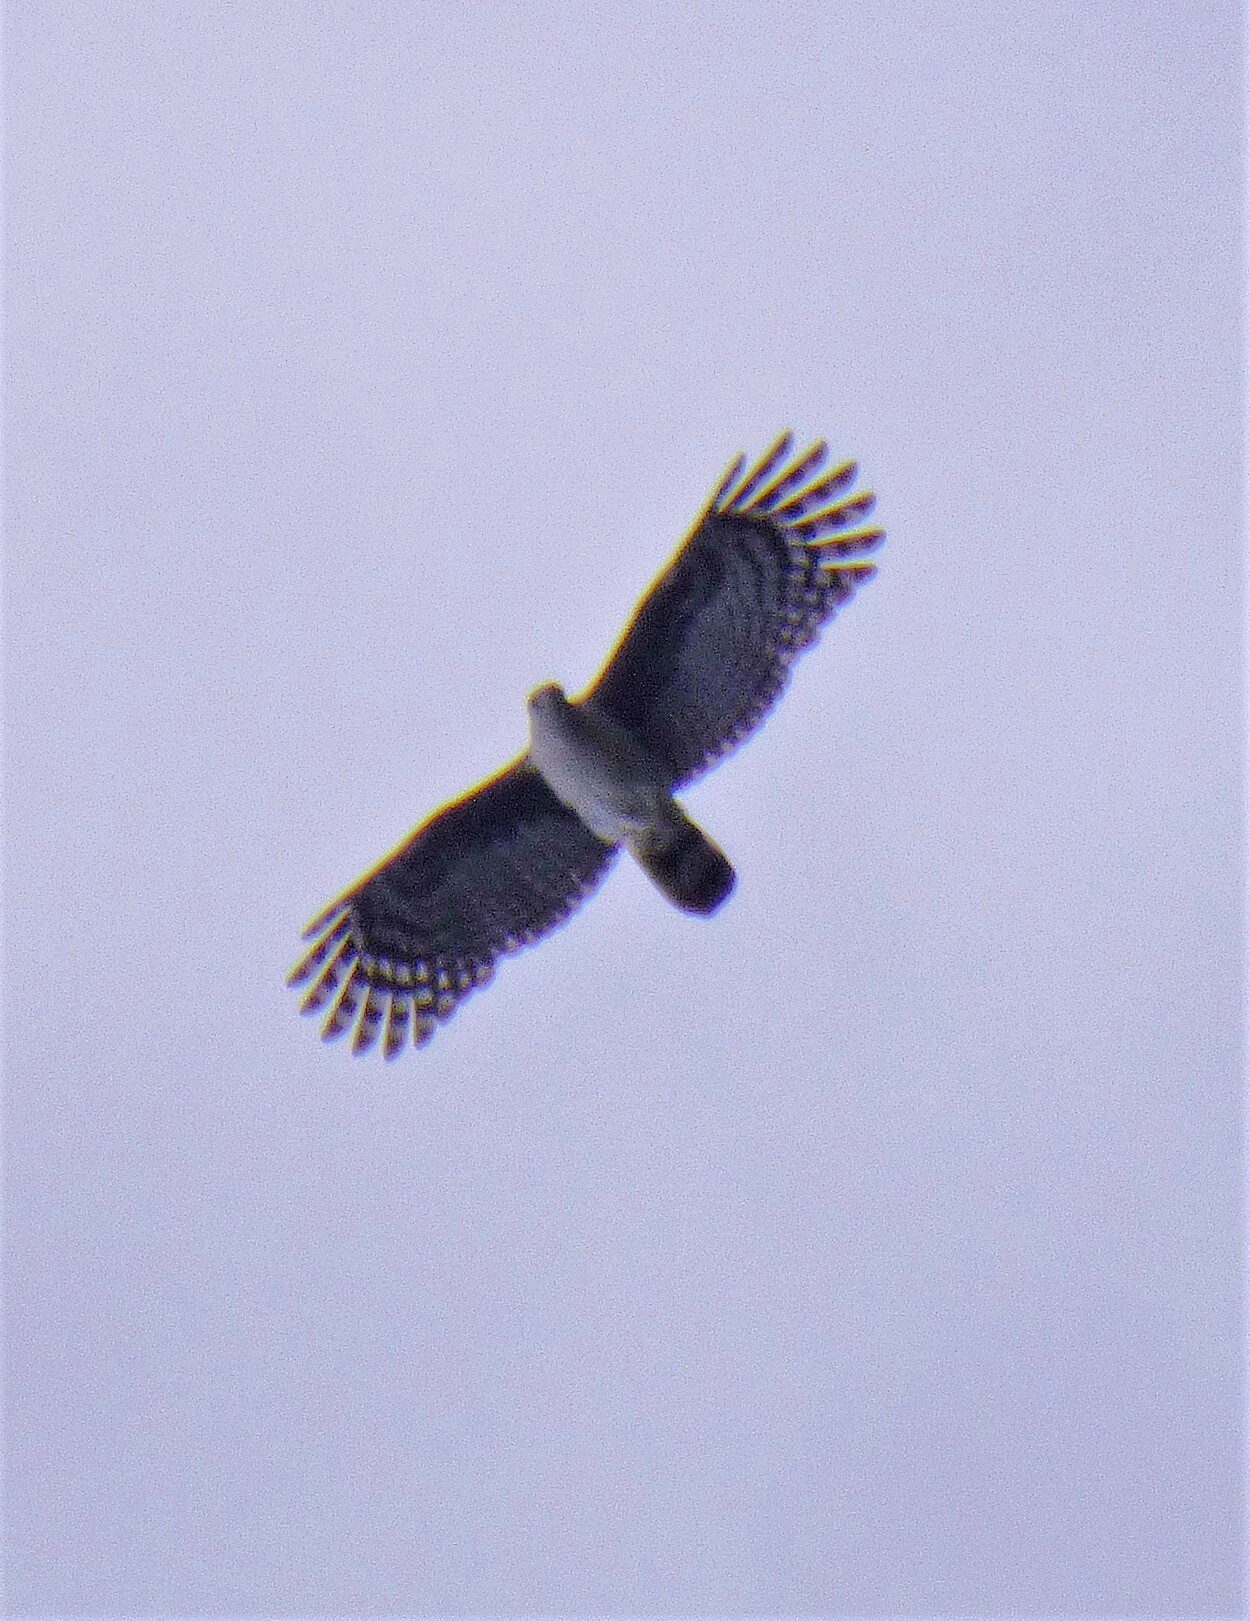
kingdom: Animalia
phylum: Chordata
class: Aves
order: Accipitriformes
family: Accipitridae
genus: Leptodon
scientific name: Leptodon cayanensis
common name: Gray-headed kite
